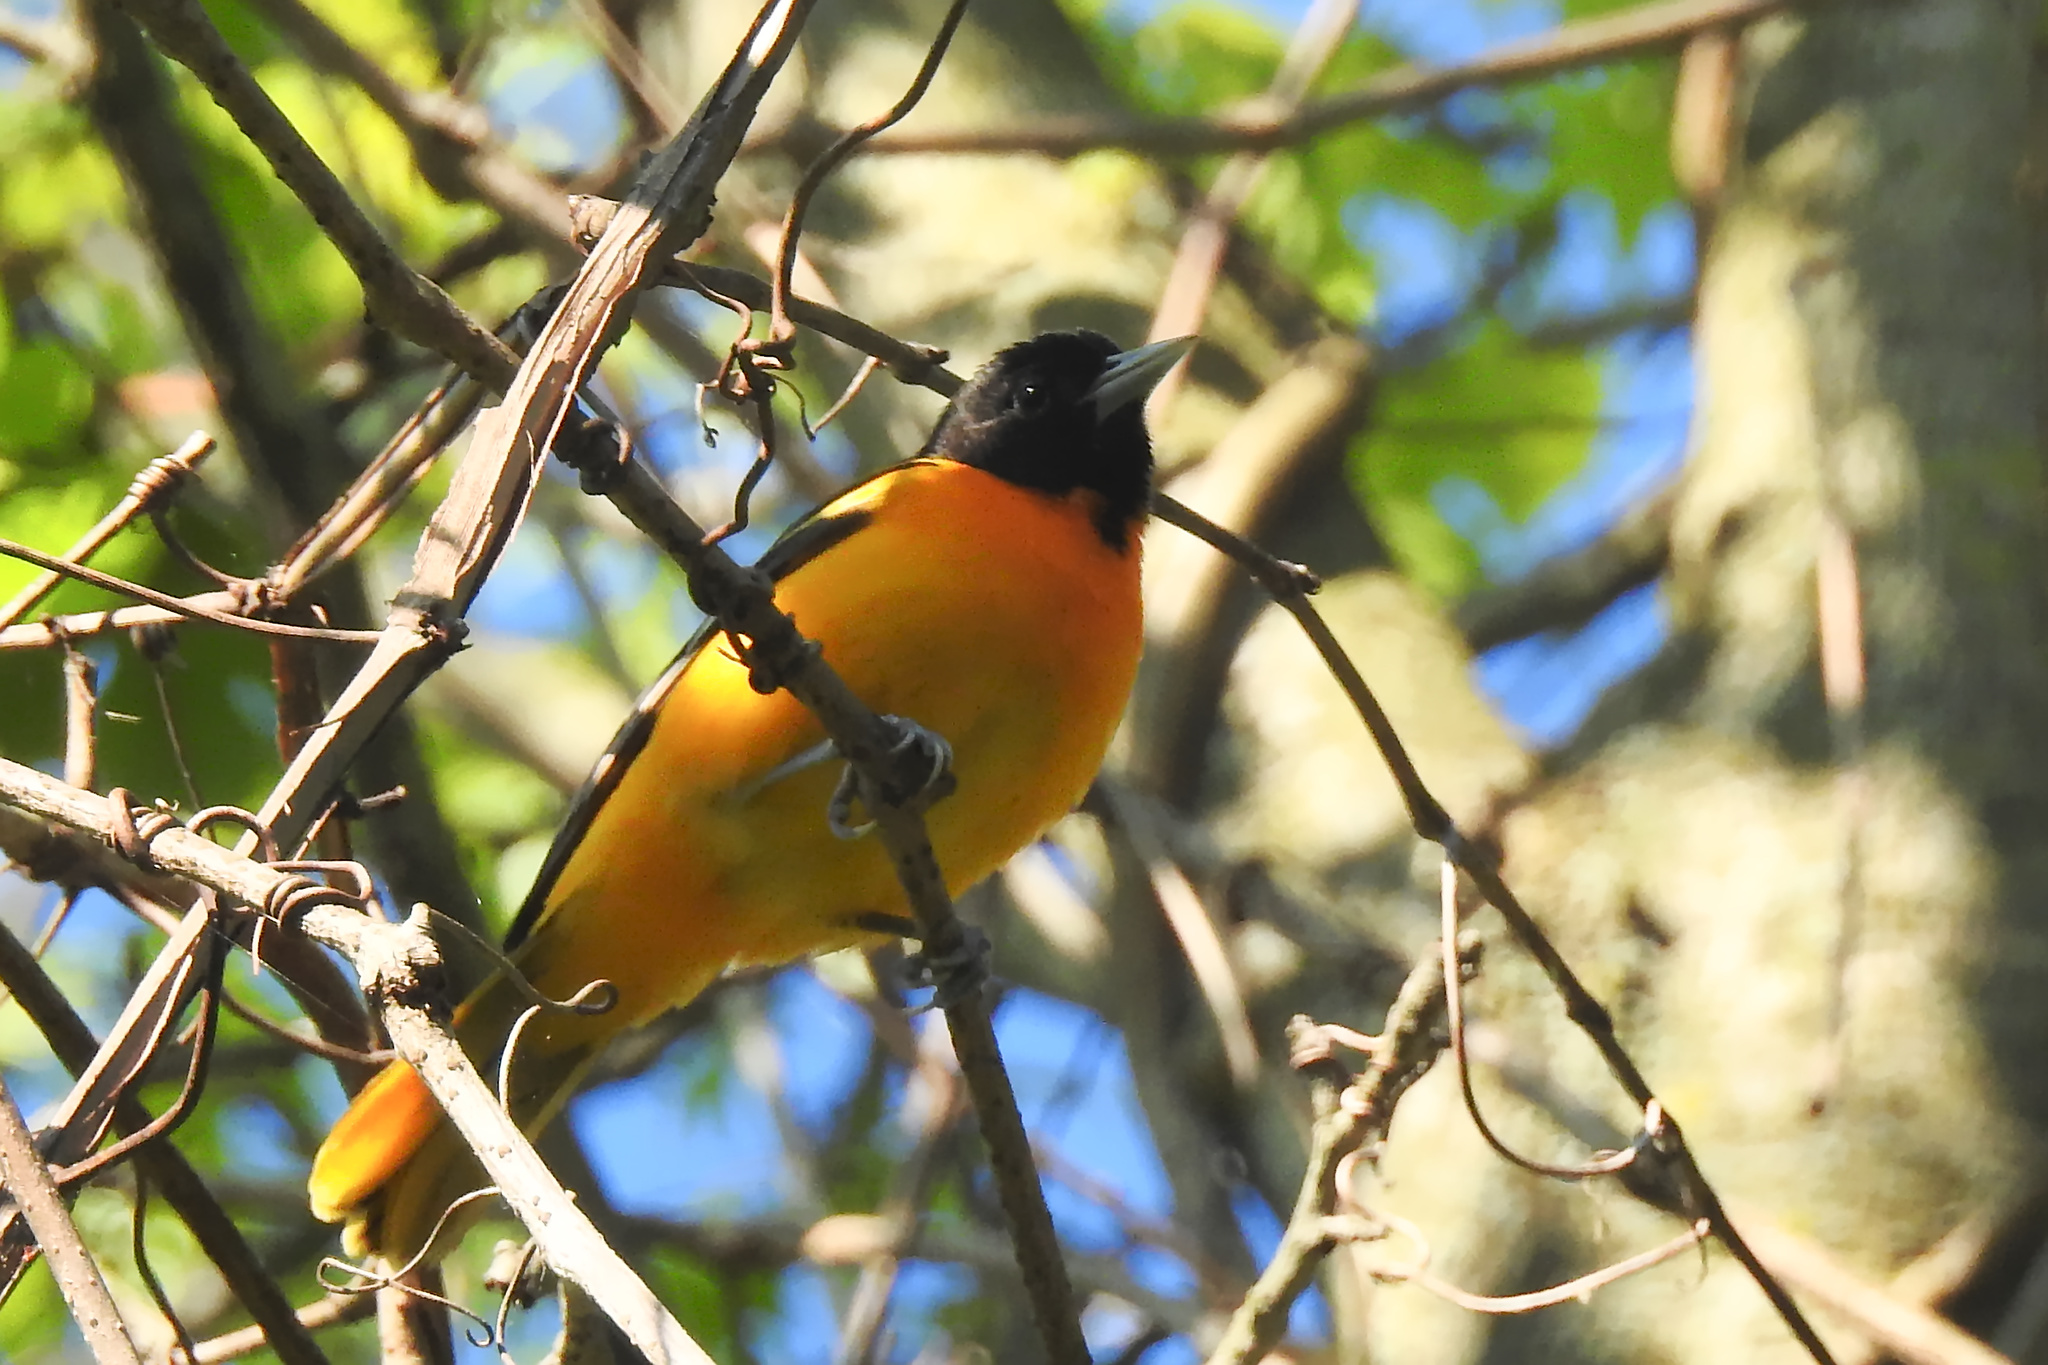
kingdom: Animalia
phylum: Chordata
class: Aves
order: Passeriformes
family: Icteridae
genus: Icterus
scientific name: Icterus galbula
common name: Baltimore oriole
